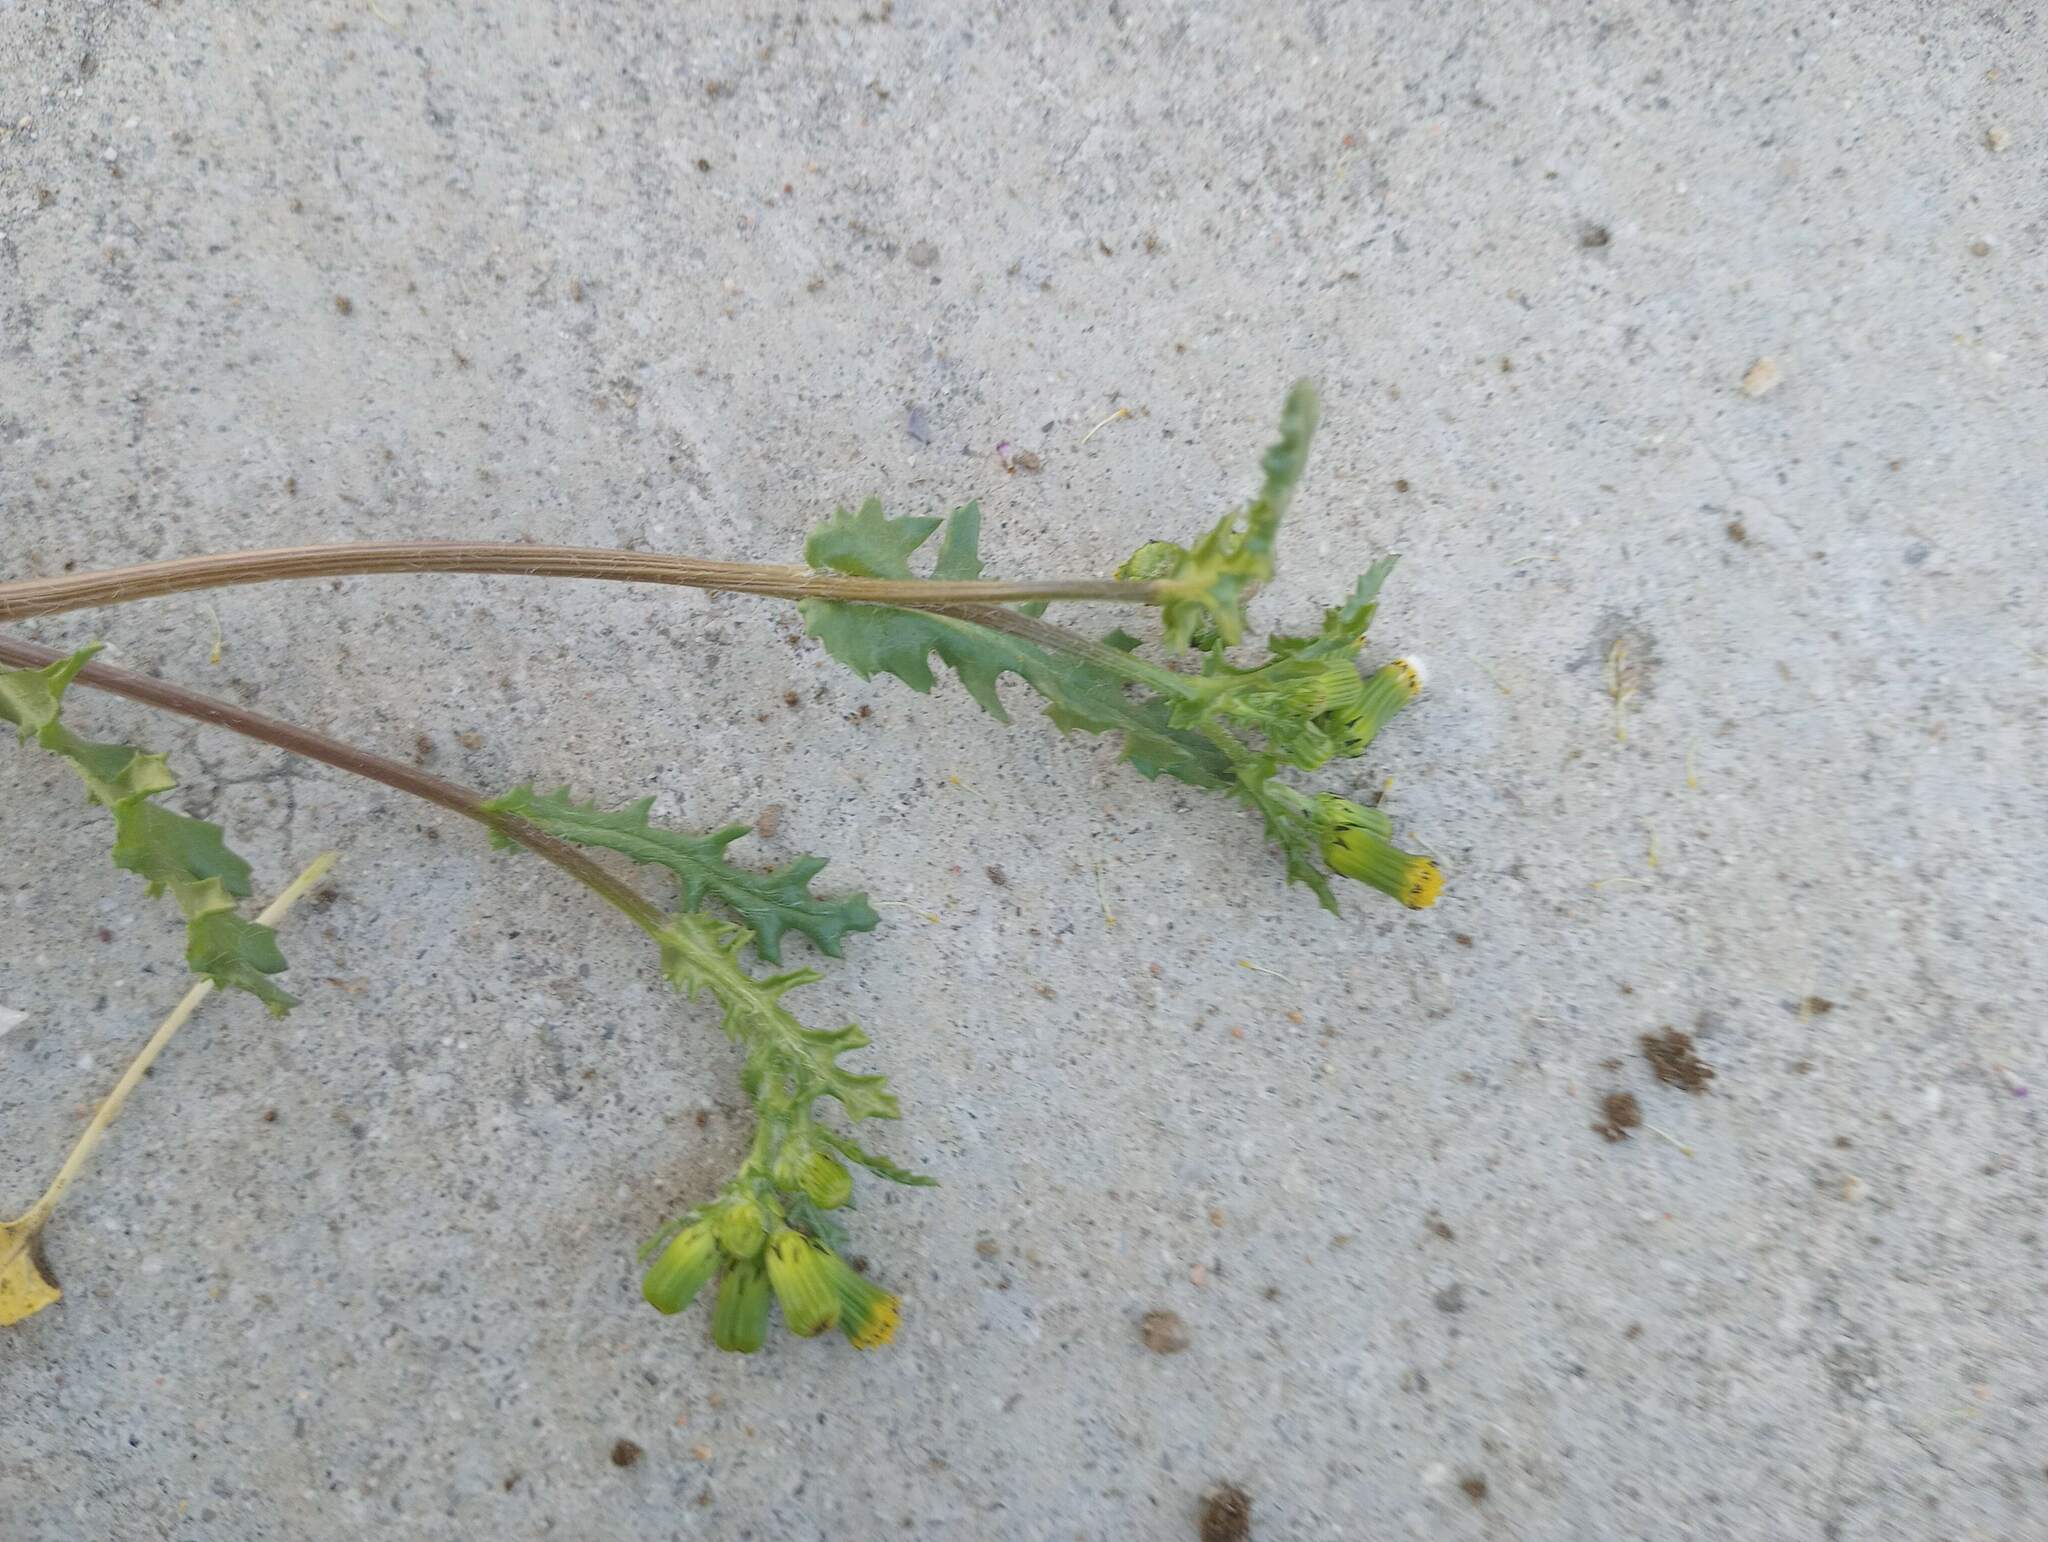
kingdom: Plantae
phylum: Tracheophyta
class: Magnoliopsida
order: Asterales
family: Asteraceae
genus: Senecio
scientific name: Senecio vulgaris
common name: Old-man-in-the-spring
